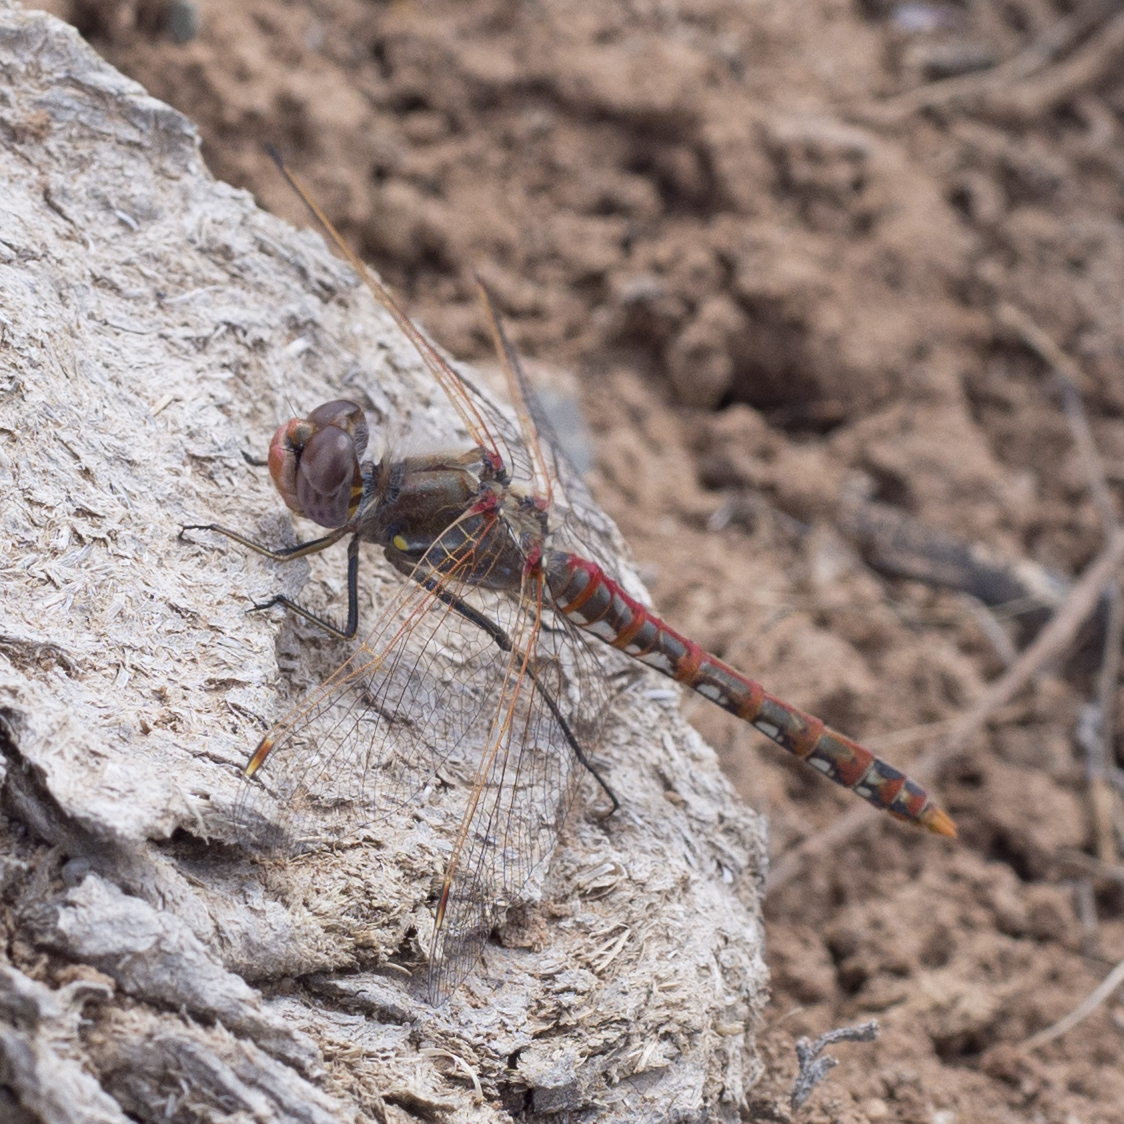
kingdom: Animalia
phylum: Arthropoda
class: Insecta
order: Odonata
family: Libellulidae
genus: Sympetrum
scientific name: Sympetrum corruptum
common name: Variegated meadowhawk
